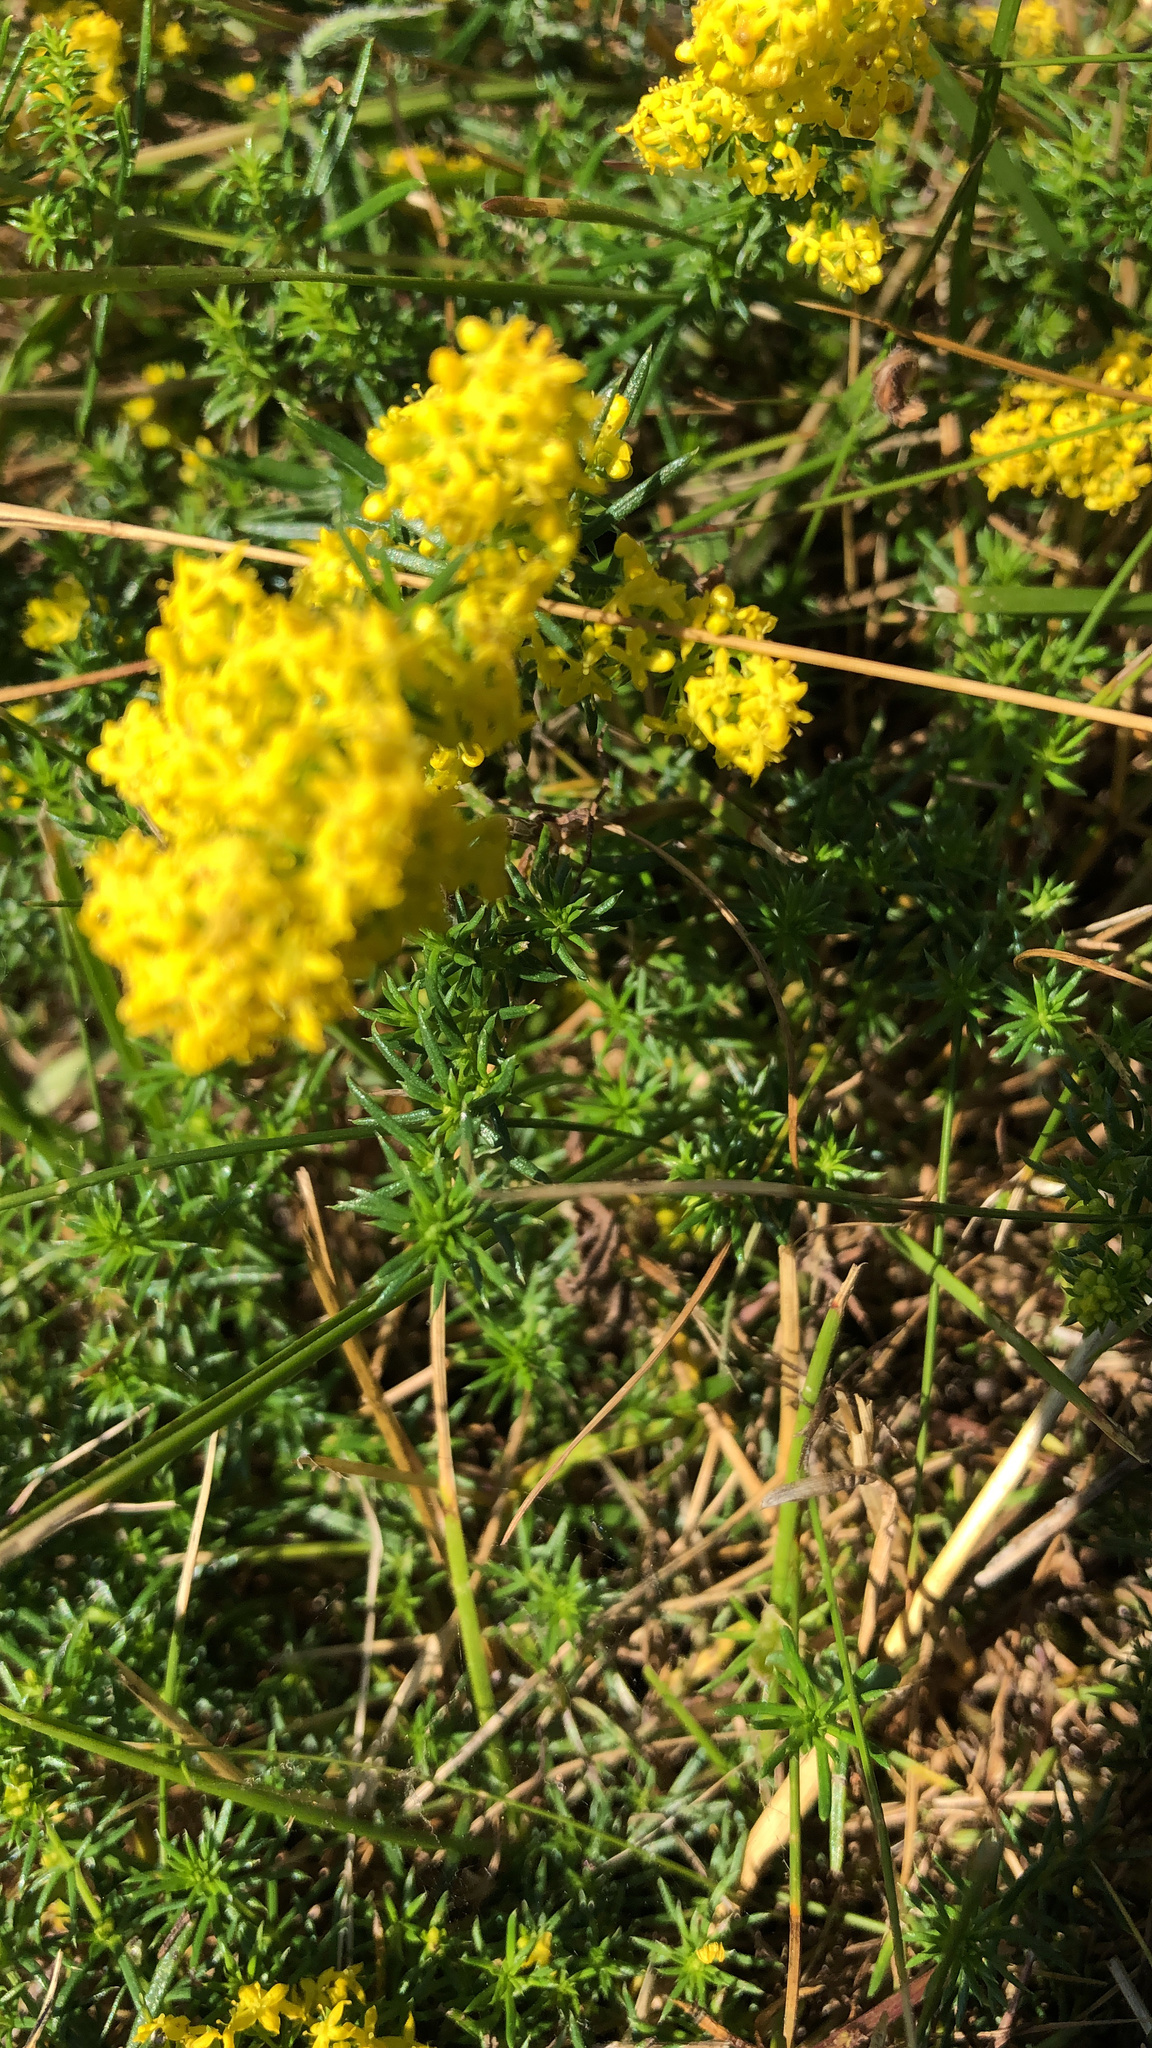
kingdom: Plantae
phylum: Tracheophyta
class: Magnoliopsida
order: Gentianales
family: Rubiaceae
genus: Galium
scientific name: Galium verum
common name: Lady's bedstraw
